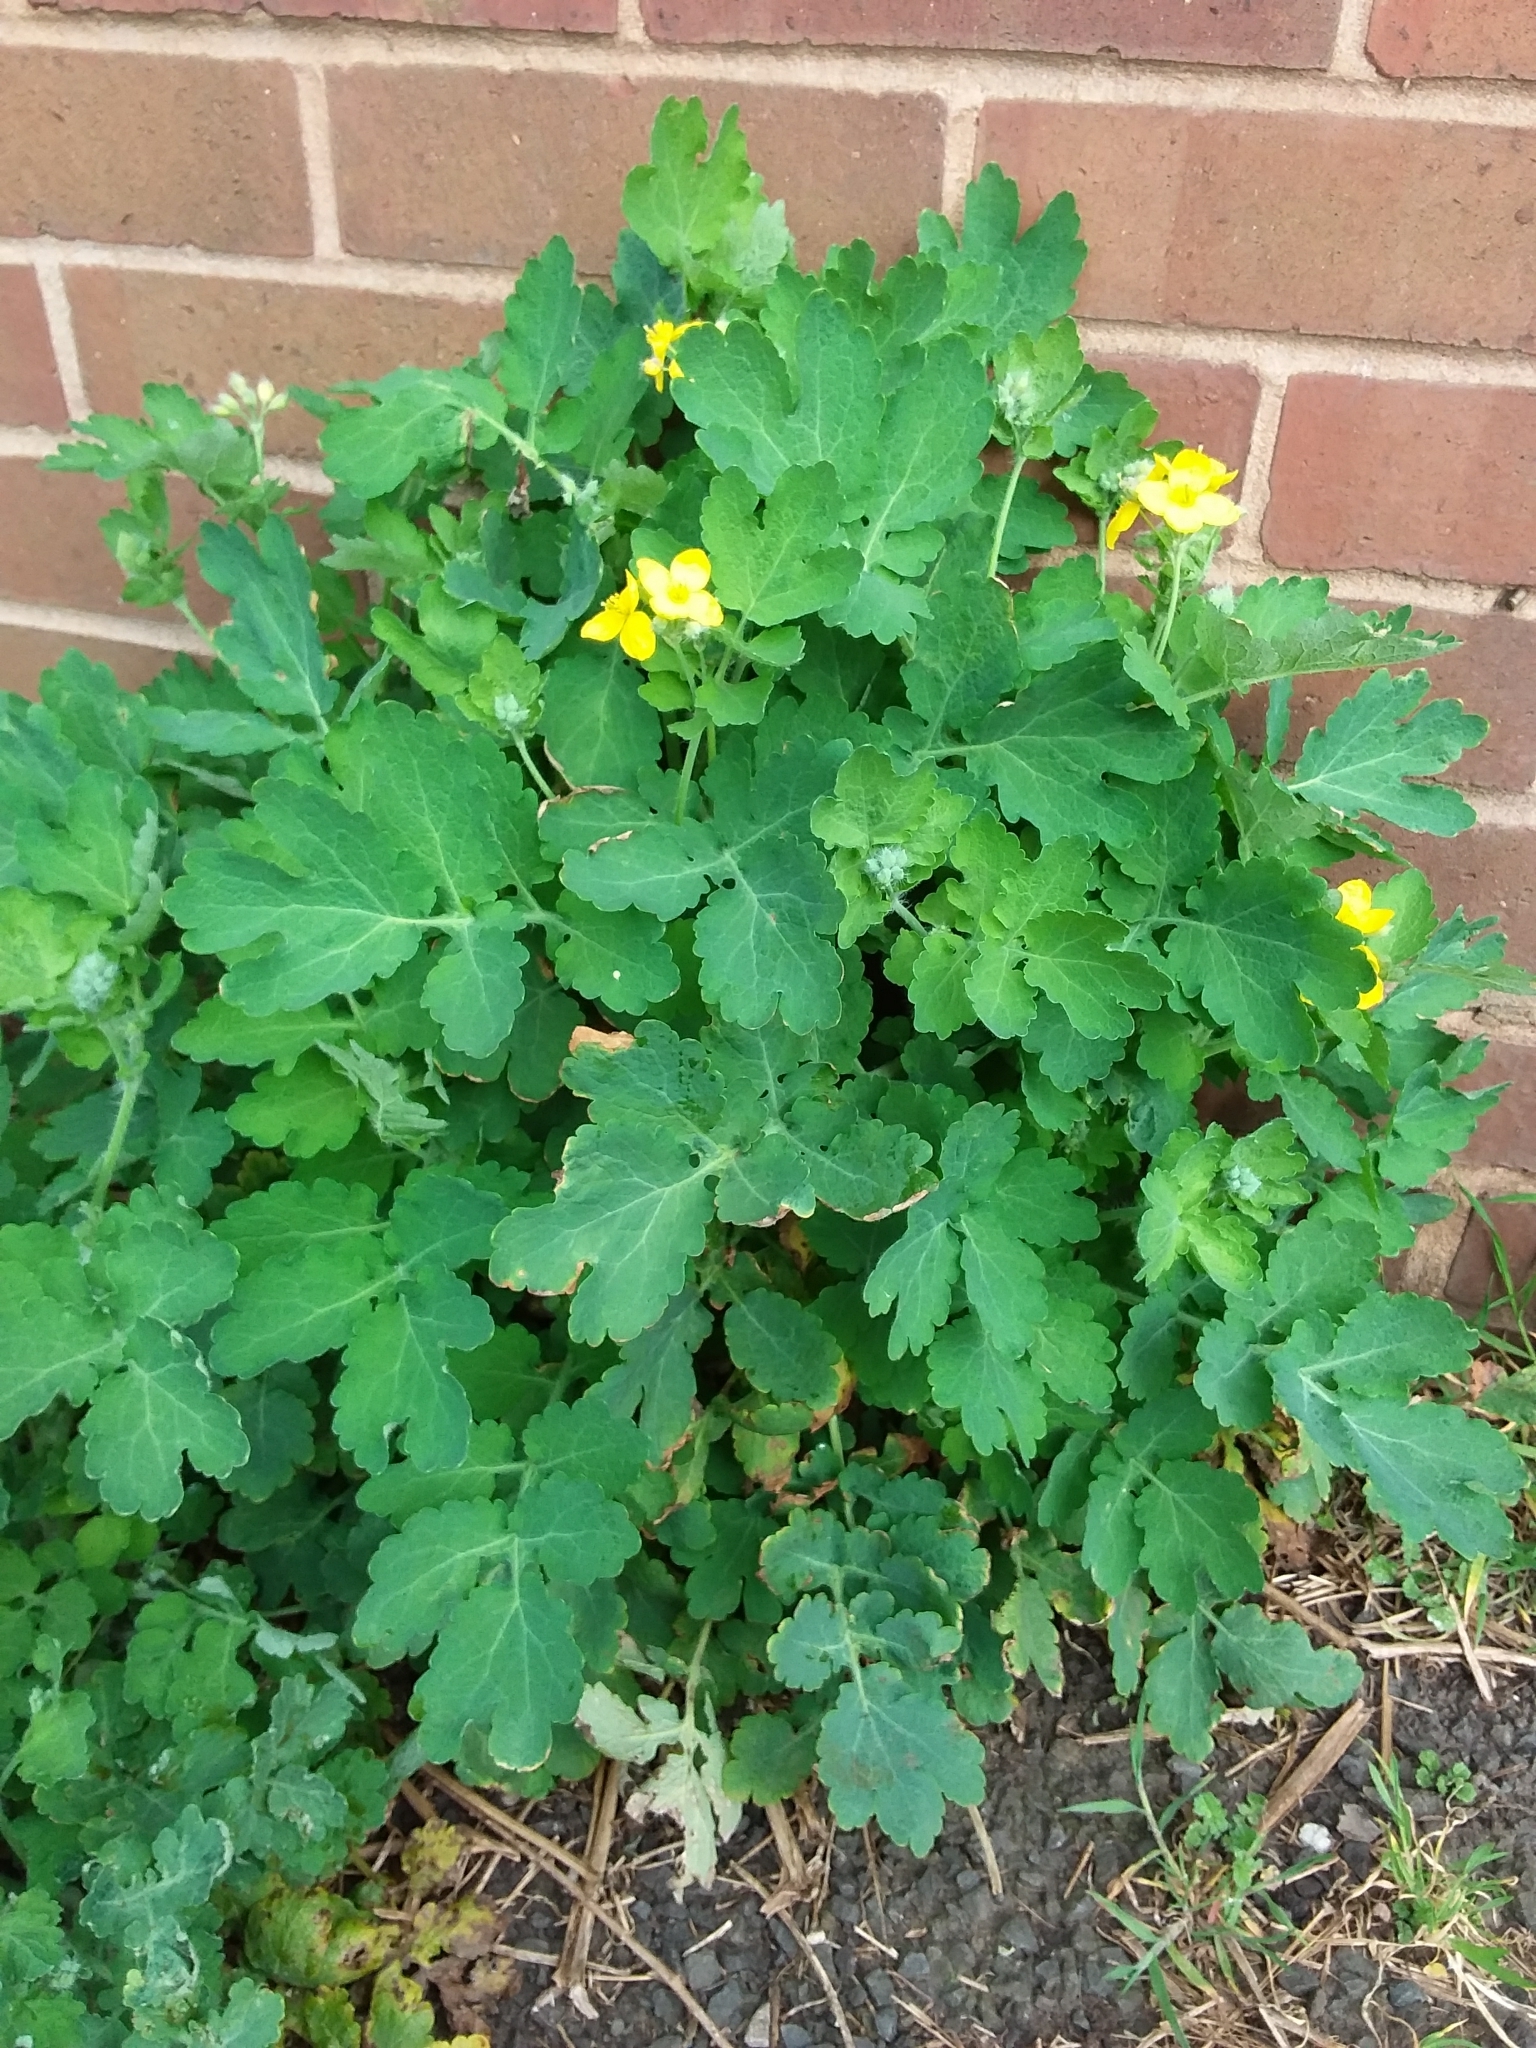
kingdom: Plantae
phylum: Tracheophyta
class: Magnoliopsida
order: Ranunculales
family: Papaveraceae
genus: Chelidonium
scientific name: Chelidonium majus
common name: Greater celandine
